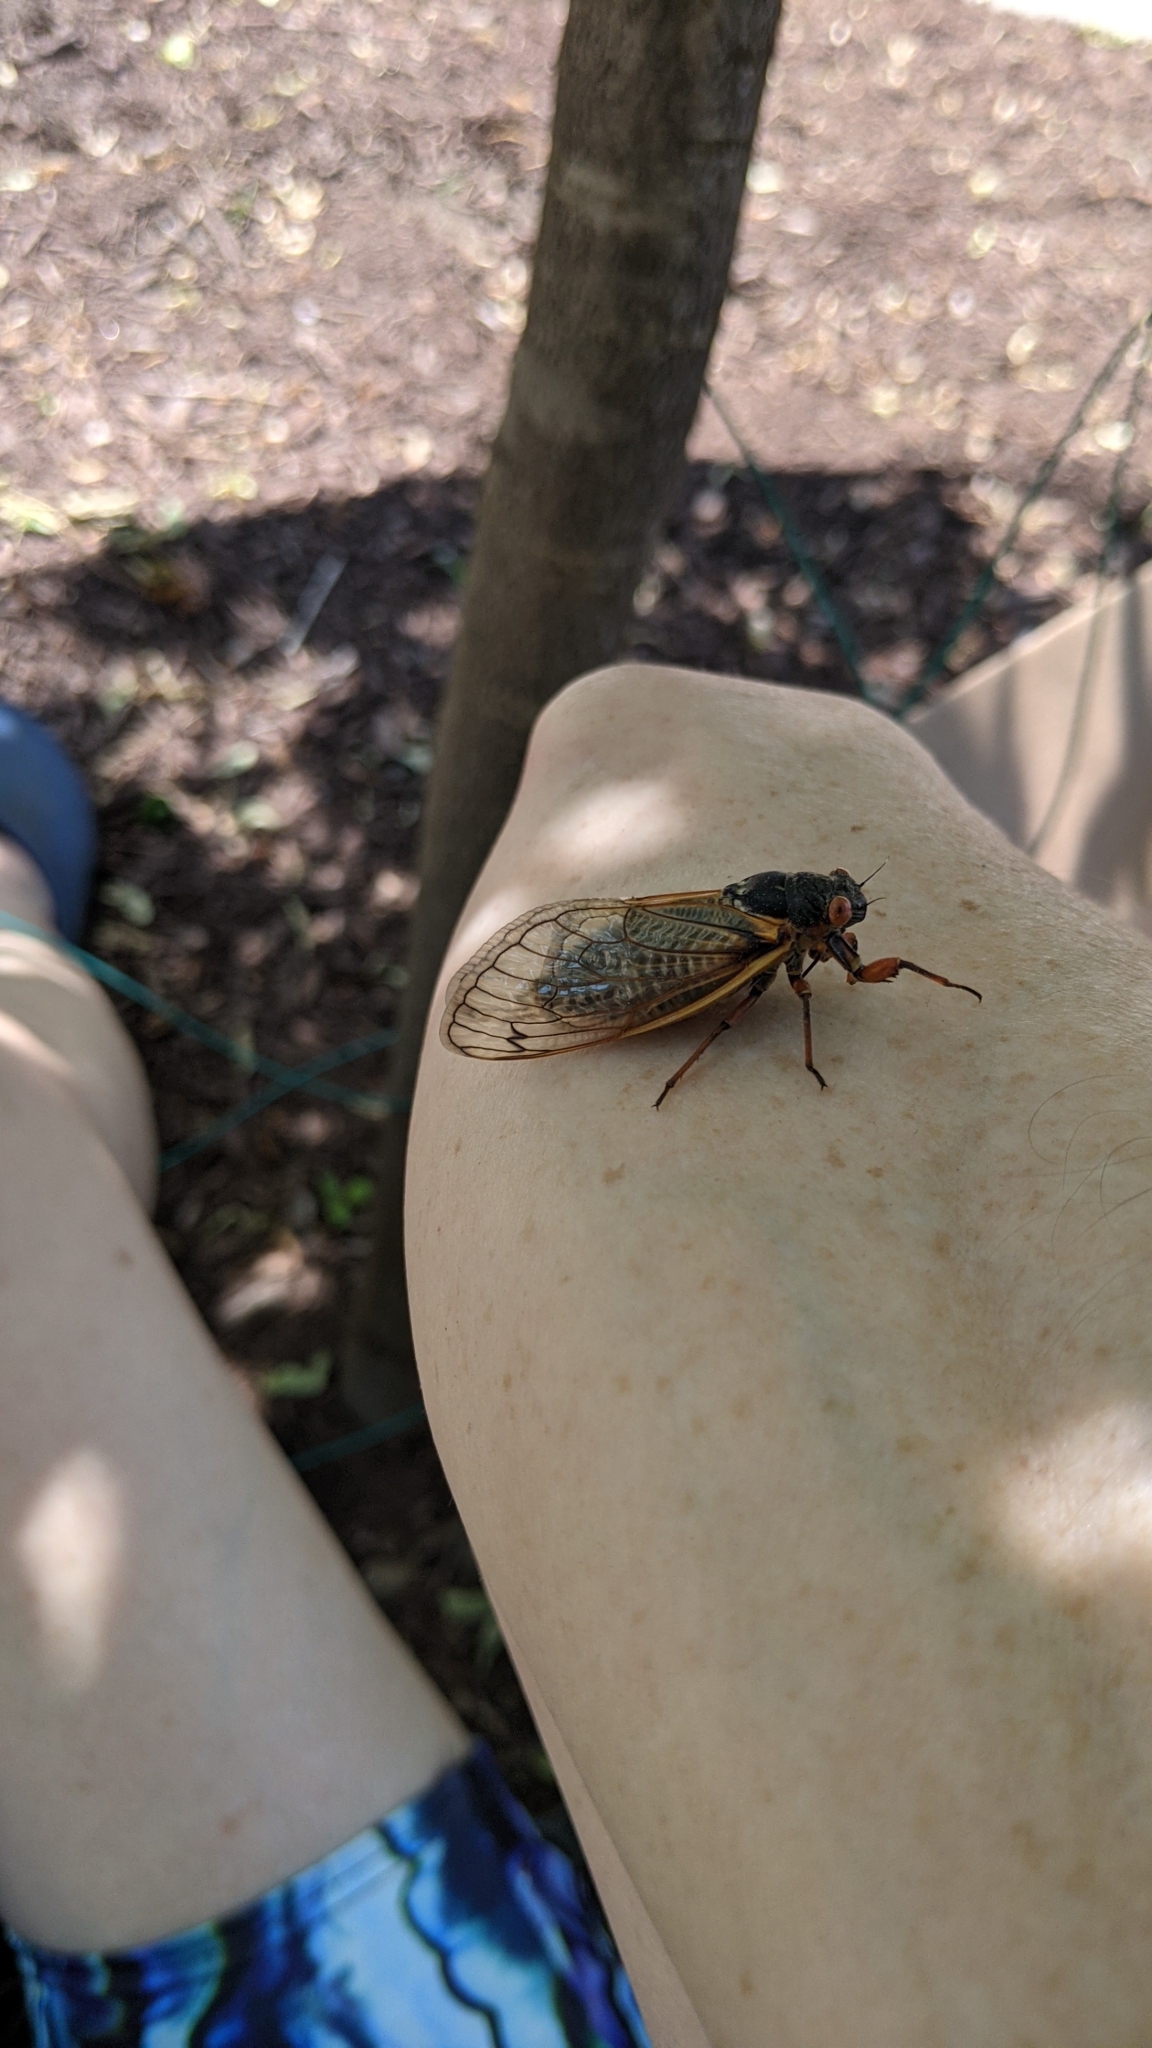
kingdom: Animalia
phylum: Arthropoda
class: Insecta
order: Hemiptera
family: Cicadidae
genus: Magicicada
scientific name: Magicicada septendecim
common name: Periodical cicada
